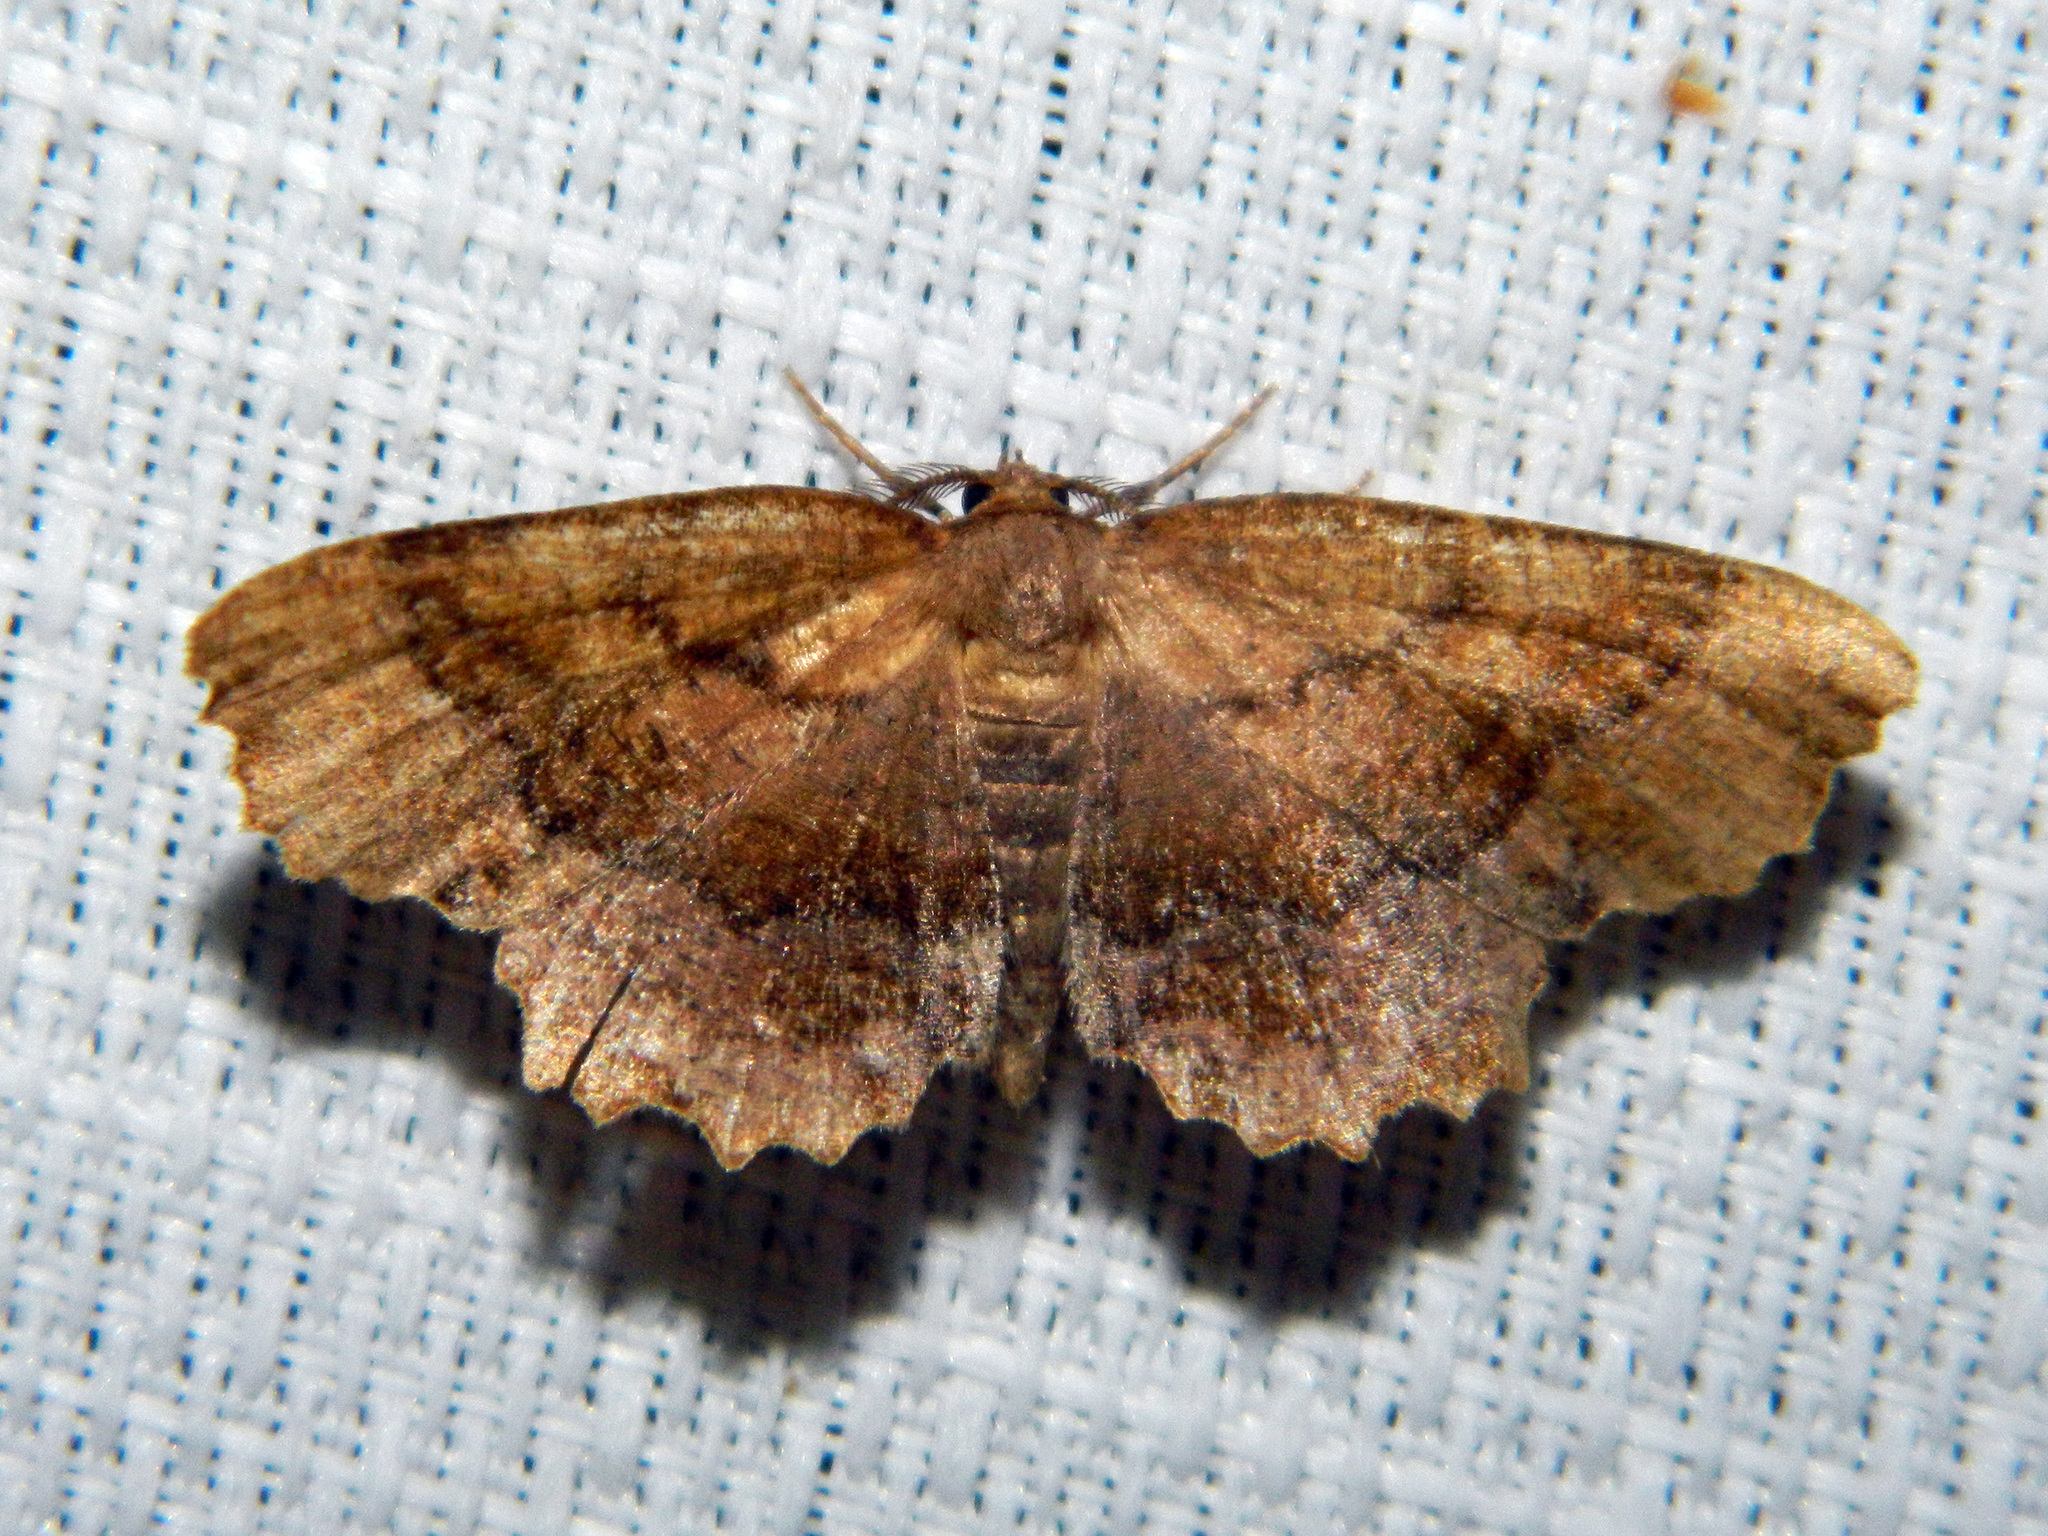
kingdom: Animalia
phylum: Arthropoda
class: Insecta
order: Lepidoptera
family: Geometridae
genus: Cepphis
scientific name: Cepphis armataria
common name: Scallop moth
